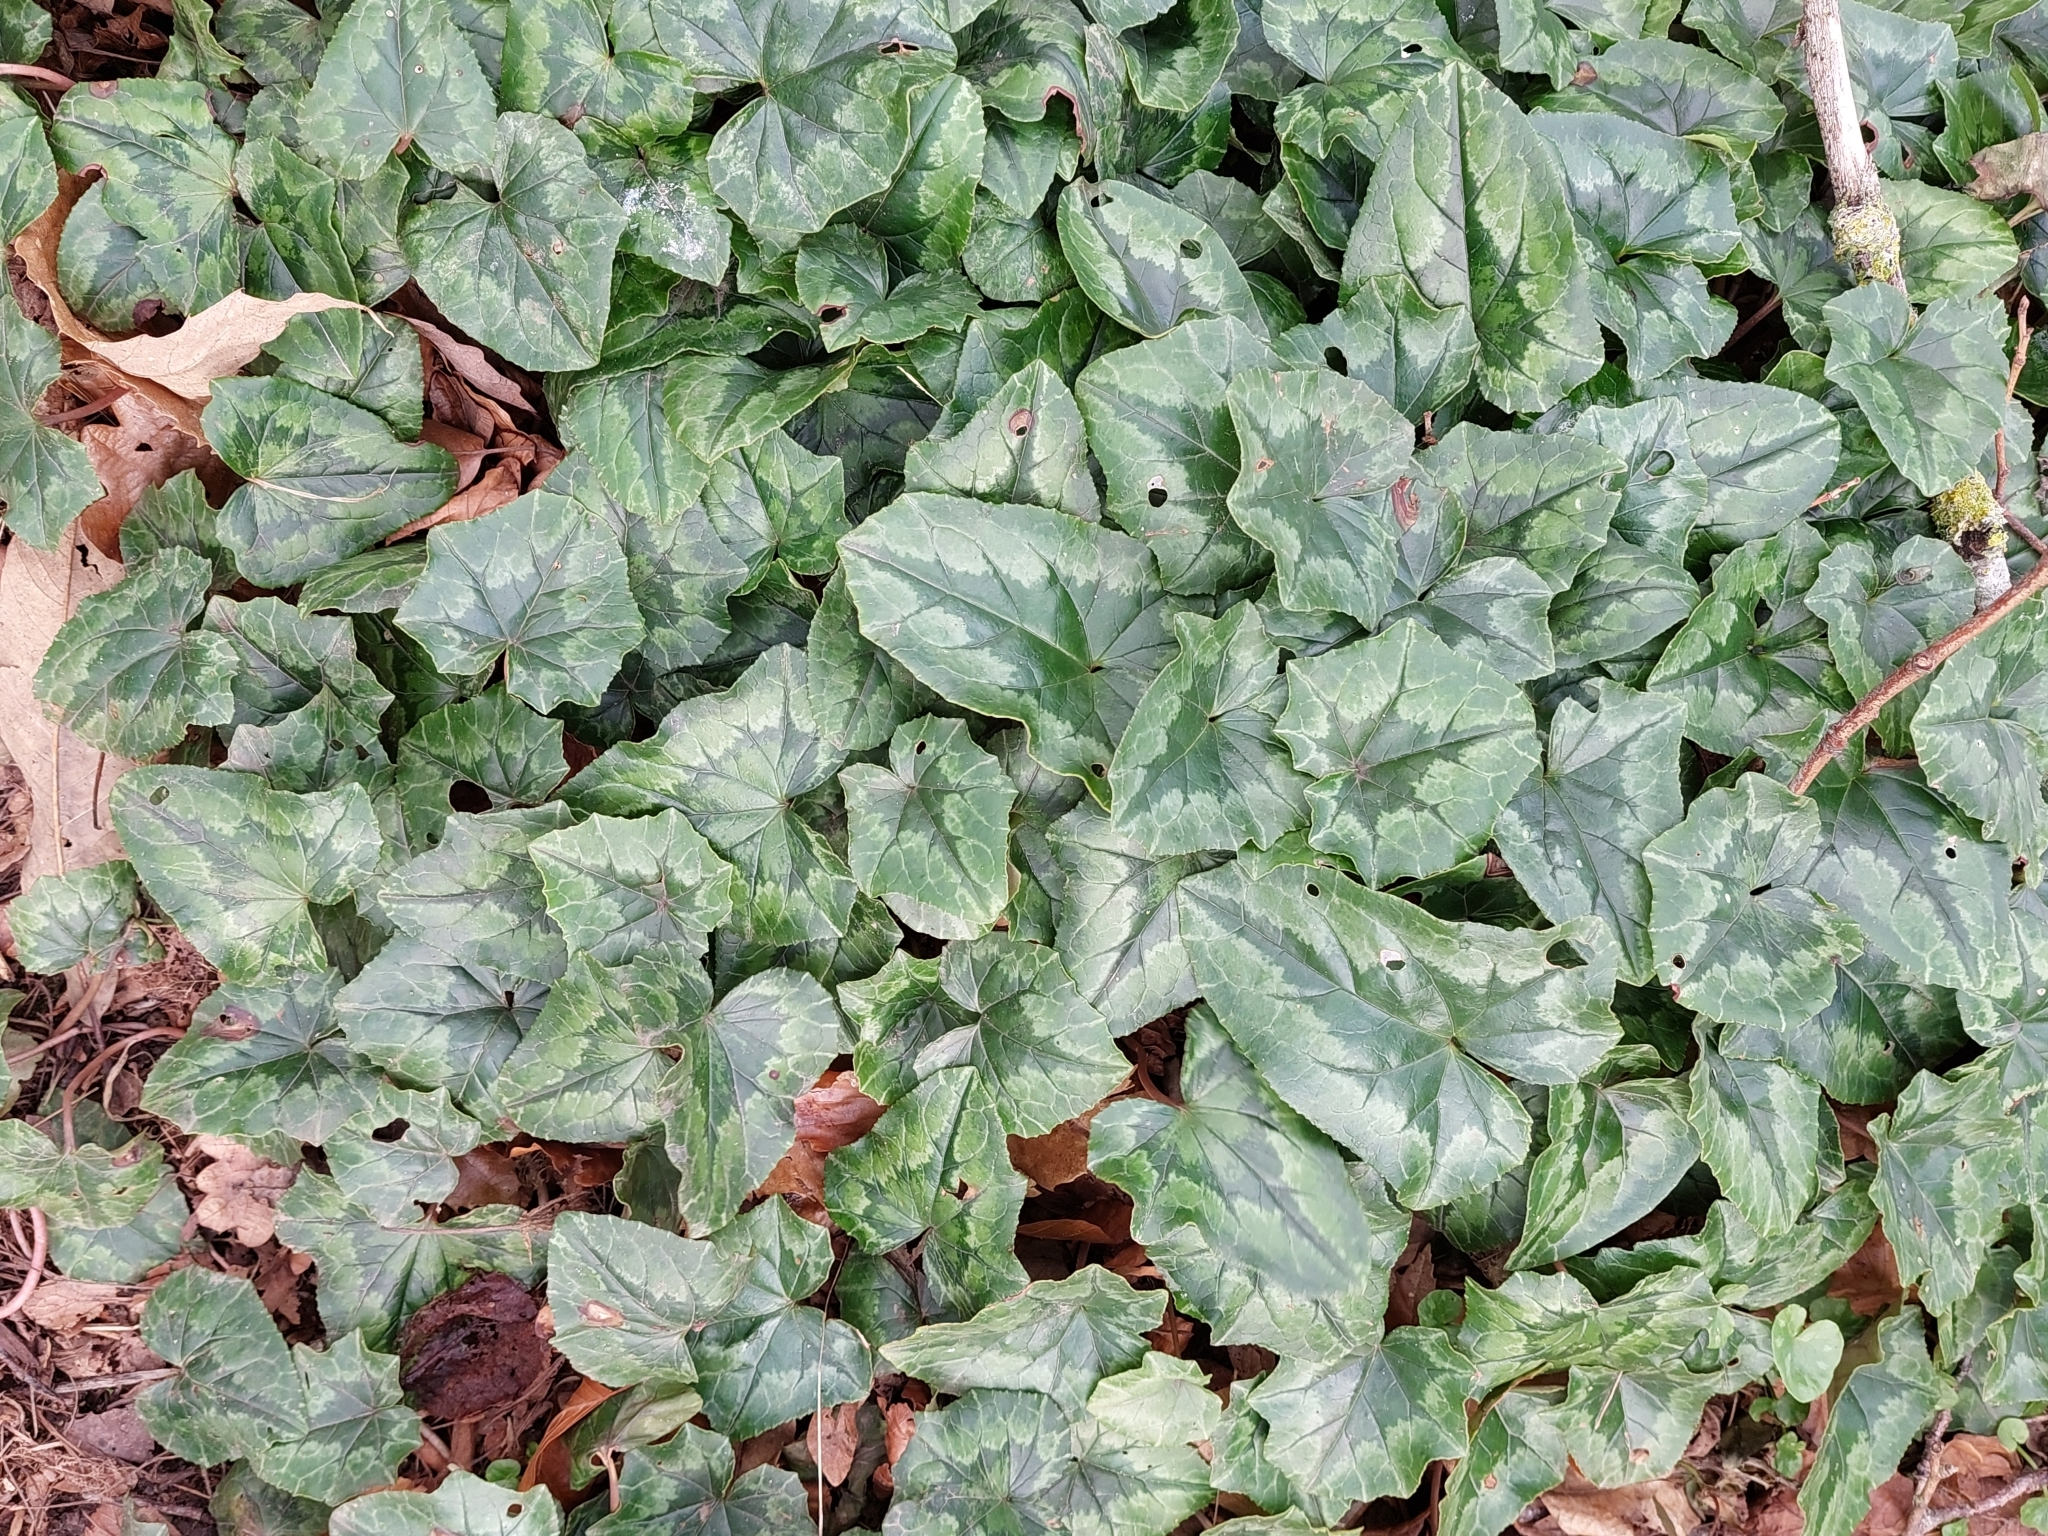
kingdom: Plantae
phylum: Tracheophyta
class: Magnoliopsida
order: Ericales
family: Primulaceae
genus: Cyclamen
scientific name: Cyclamen hederifolium
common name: Sowbread
